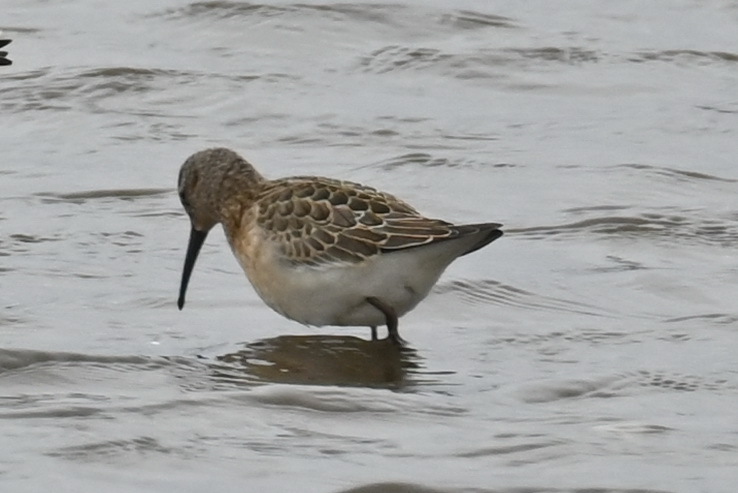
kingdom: Animalia
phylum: Chordata
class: Aves
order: Charadriiformes
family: Scolopacidae
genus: Calidris
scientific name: Calidris ferruginea
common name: Curlew sandpiper
